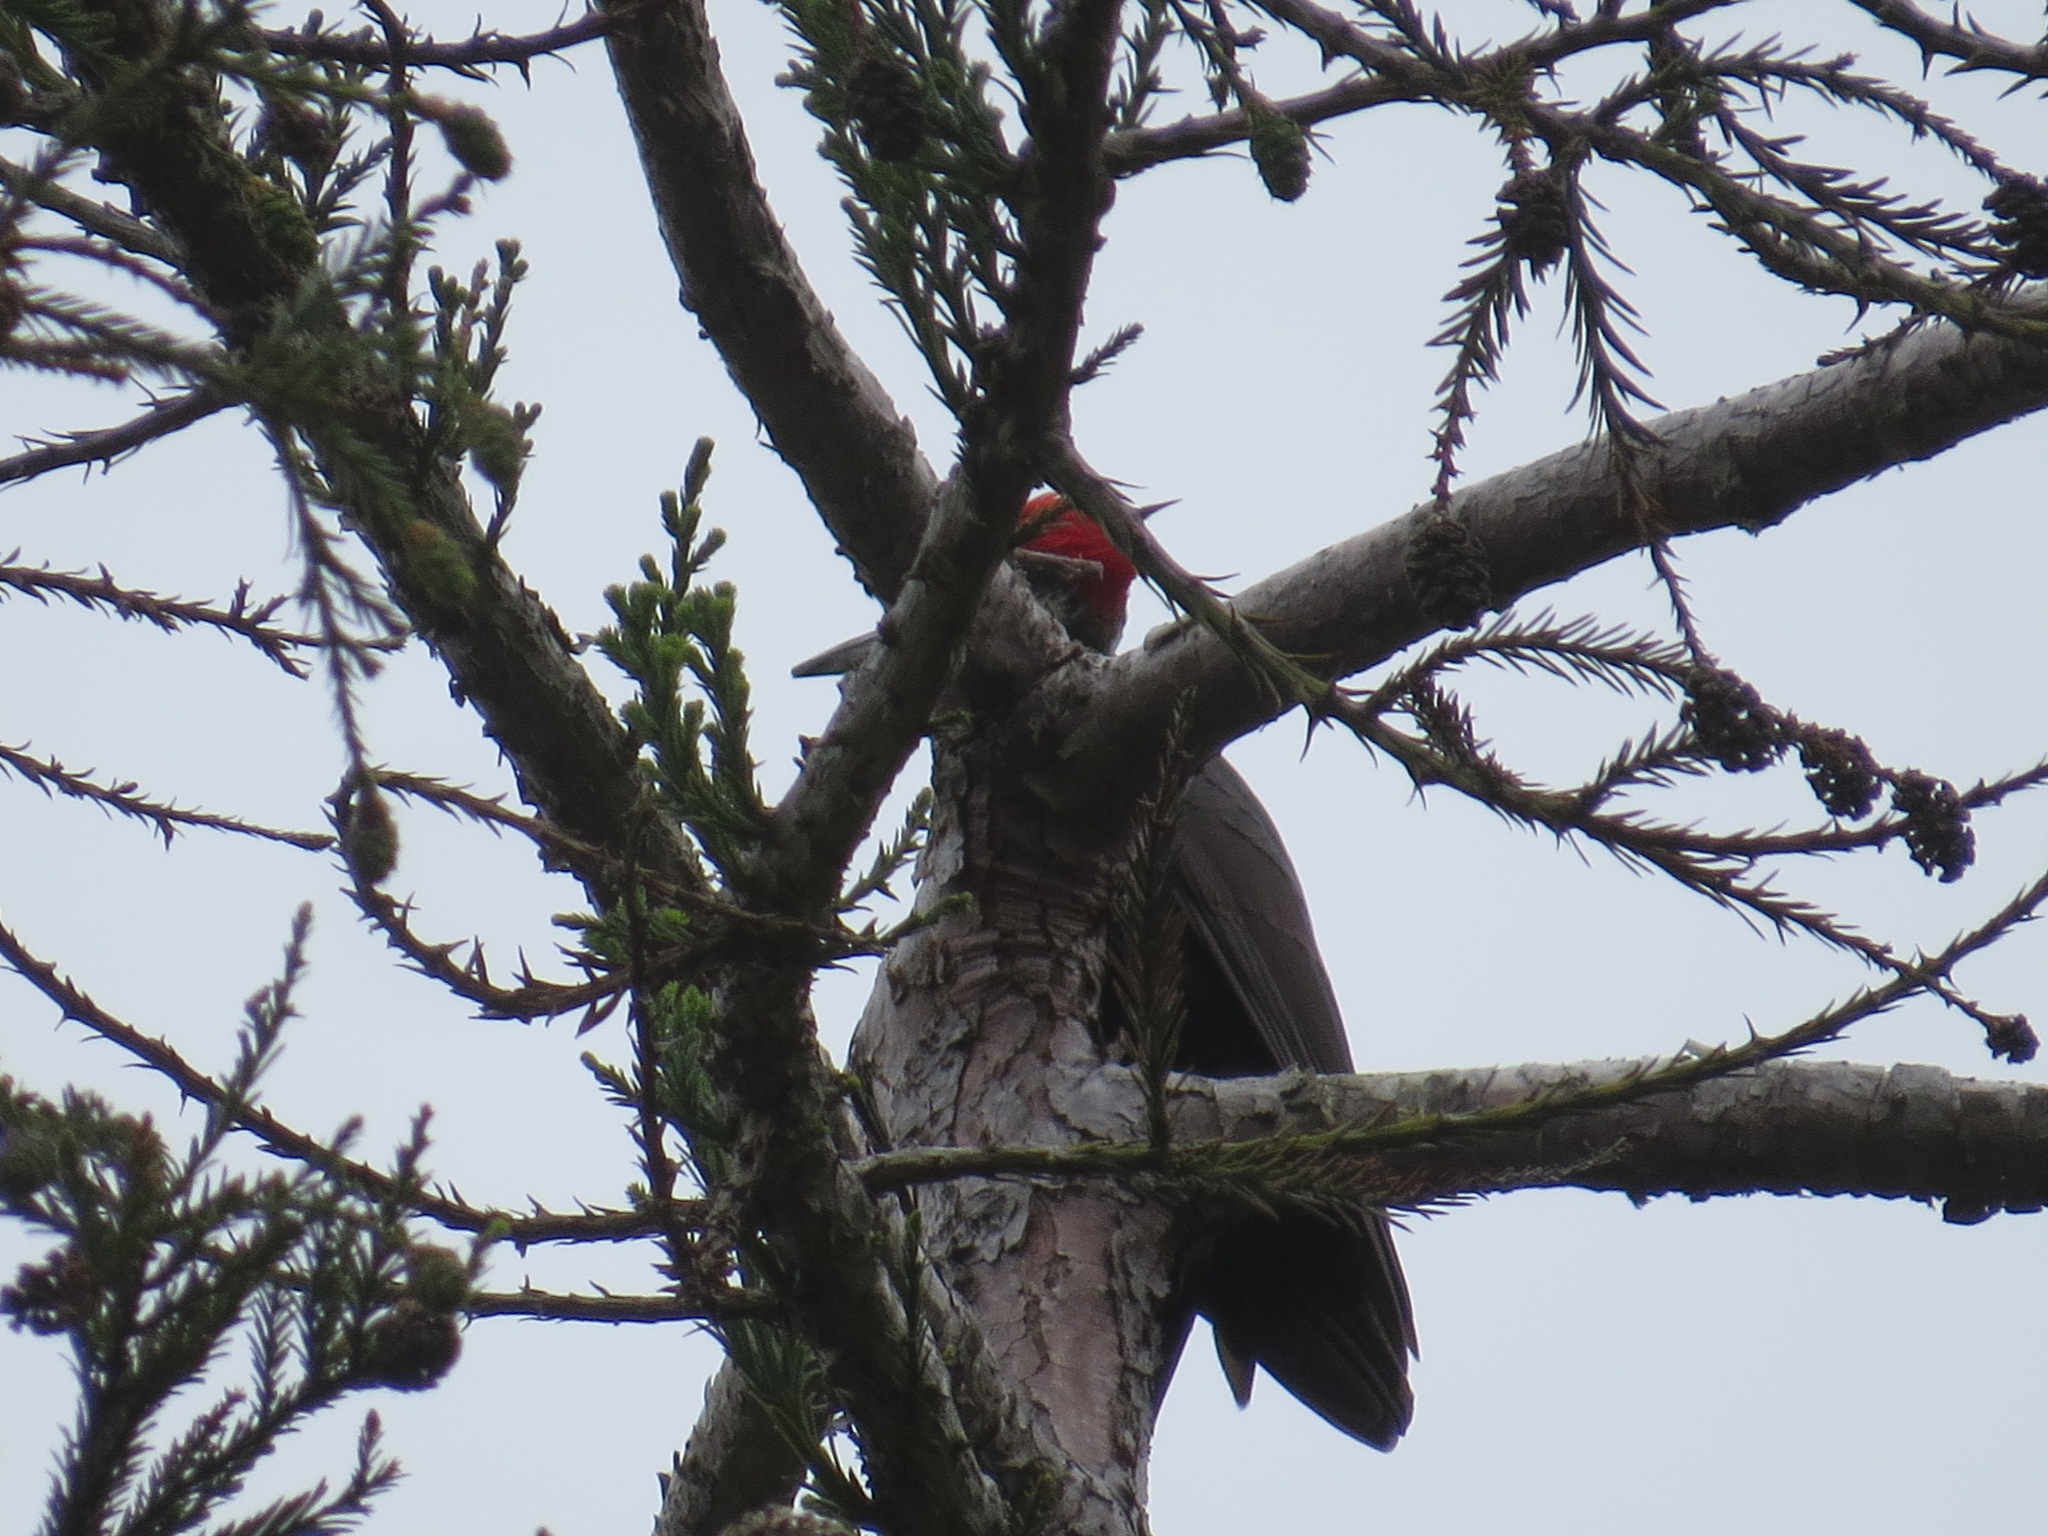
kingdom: Animalia
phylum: Chordata
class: Aves
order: Piciformes
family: Picidae
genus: Dryocopus
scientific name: Dryocopus pileatus
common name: Pileated woodpecker
